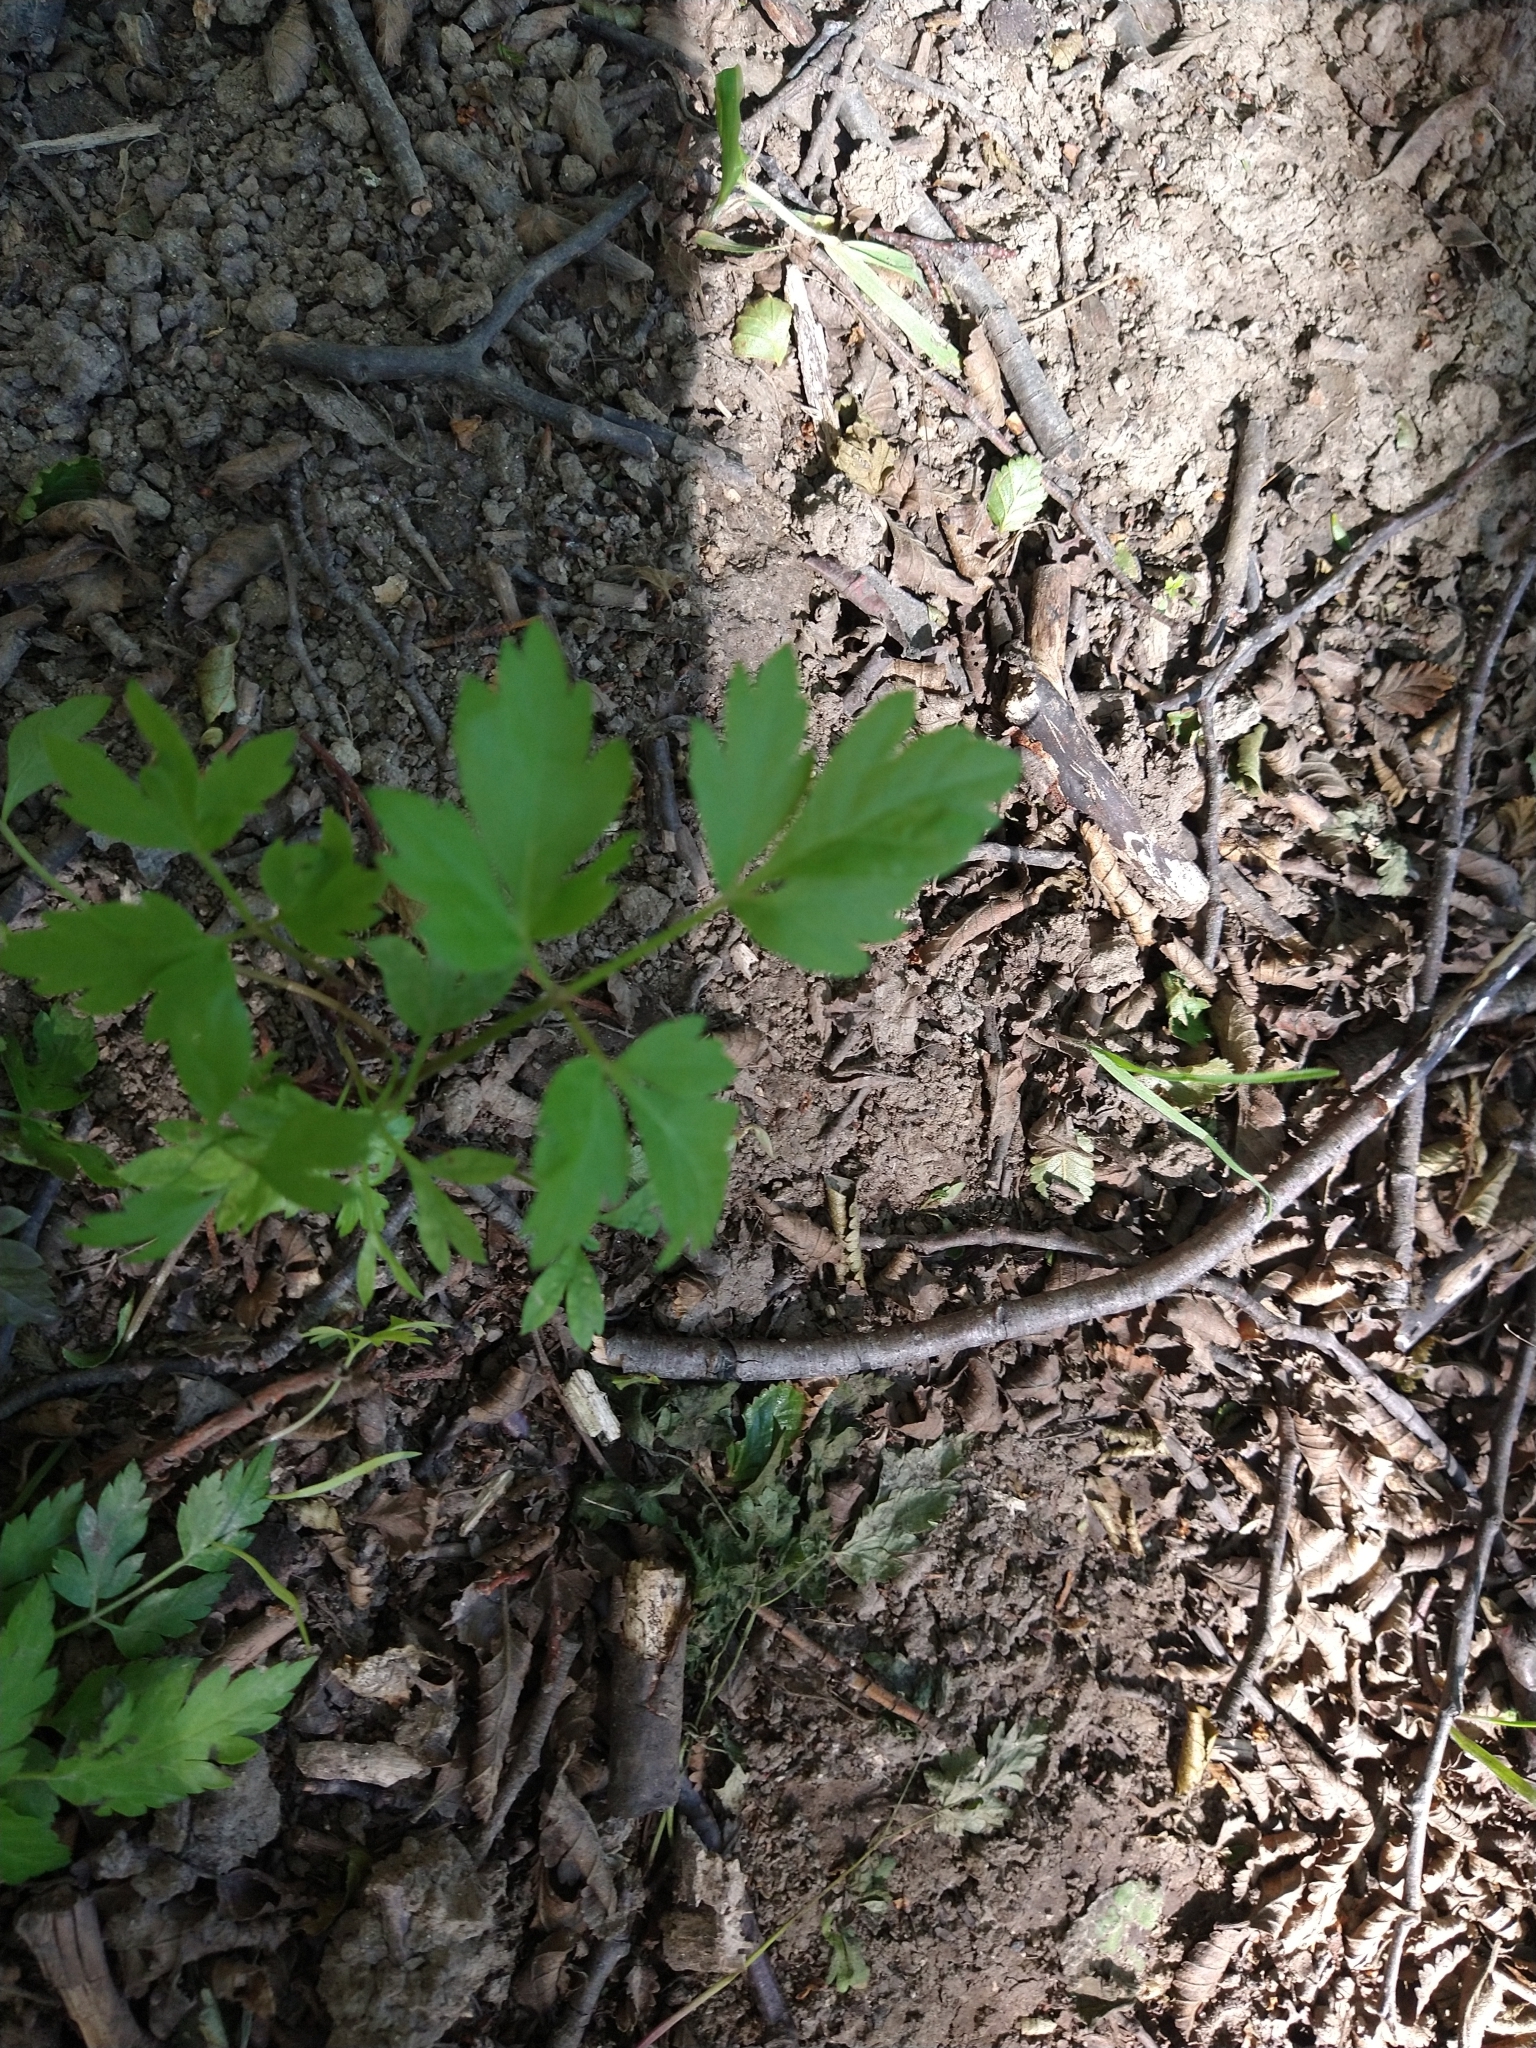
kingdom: Plantae
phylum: Tracheophyta
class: Magnoliopsida
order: Apiales
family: Apiaceae
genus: Osmorhiza
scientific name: Osmorhiza berteroi
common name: Mountain sweet cicely
